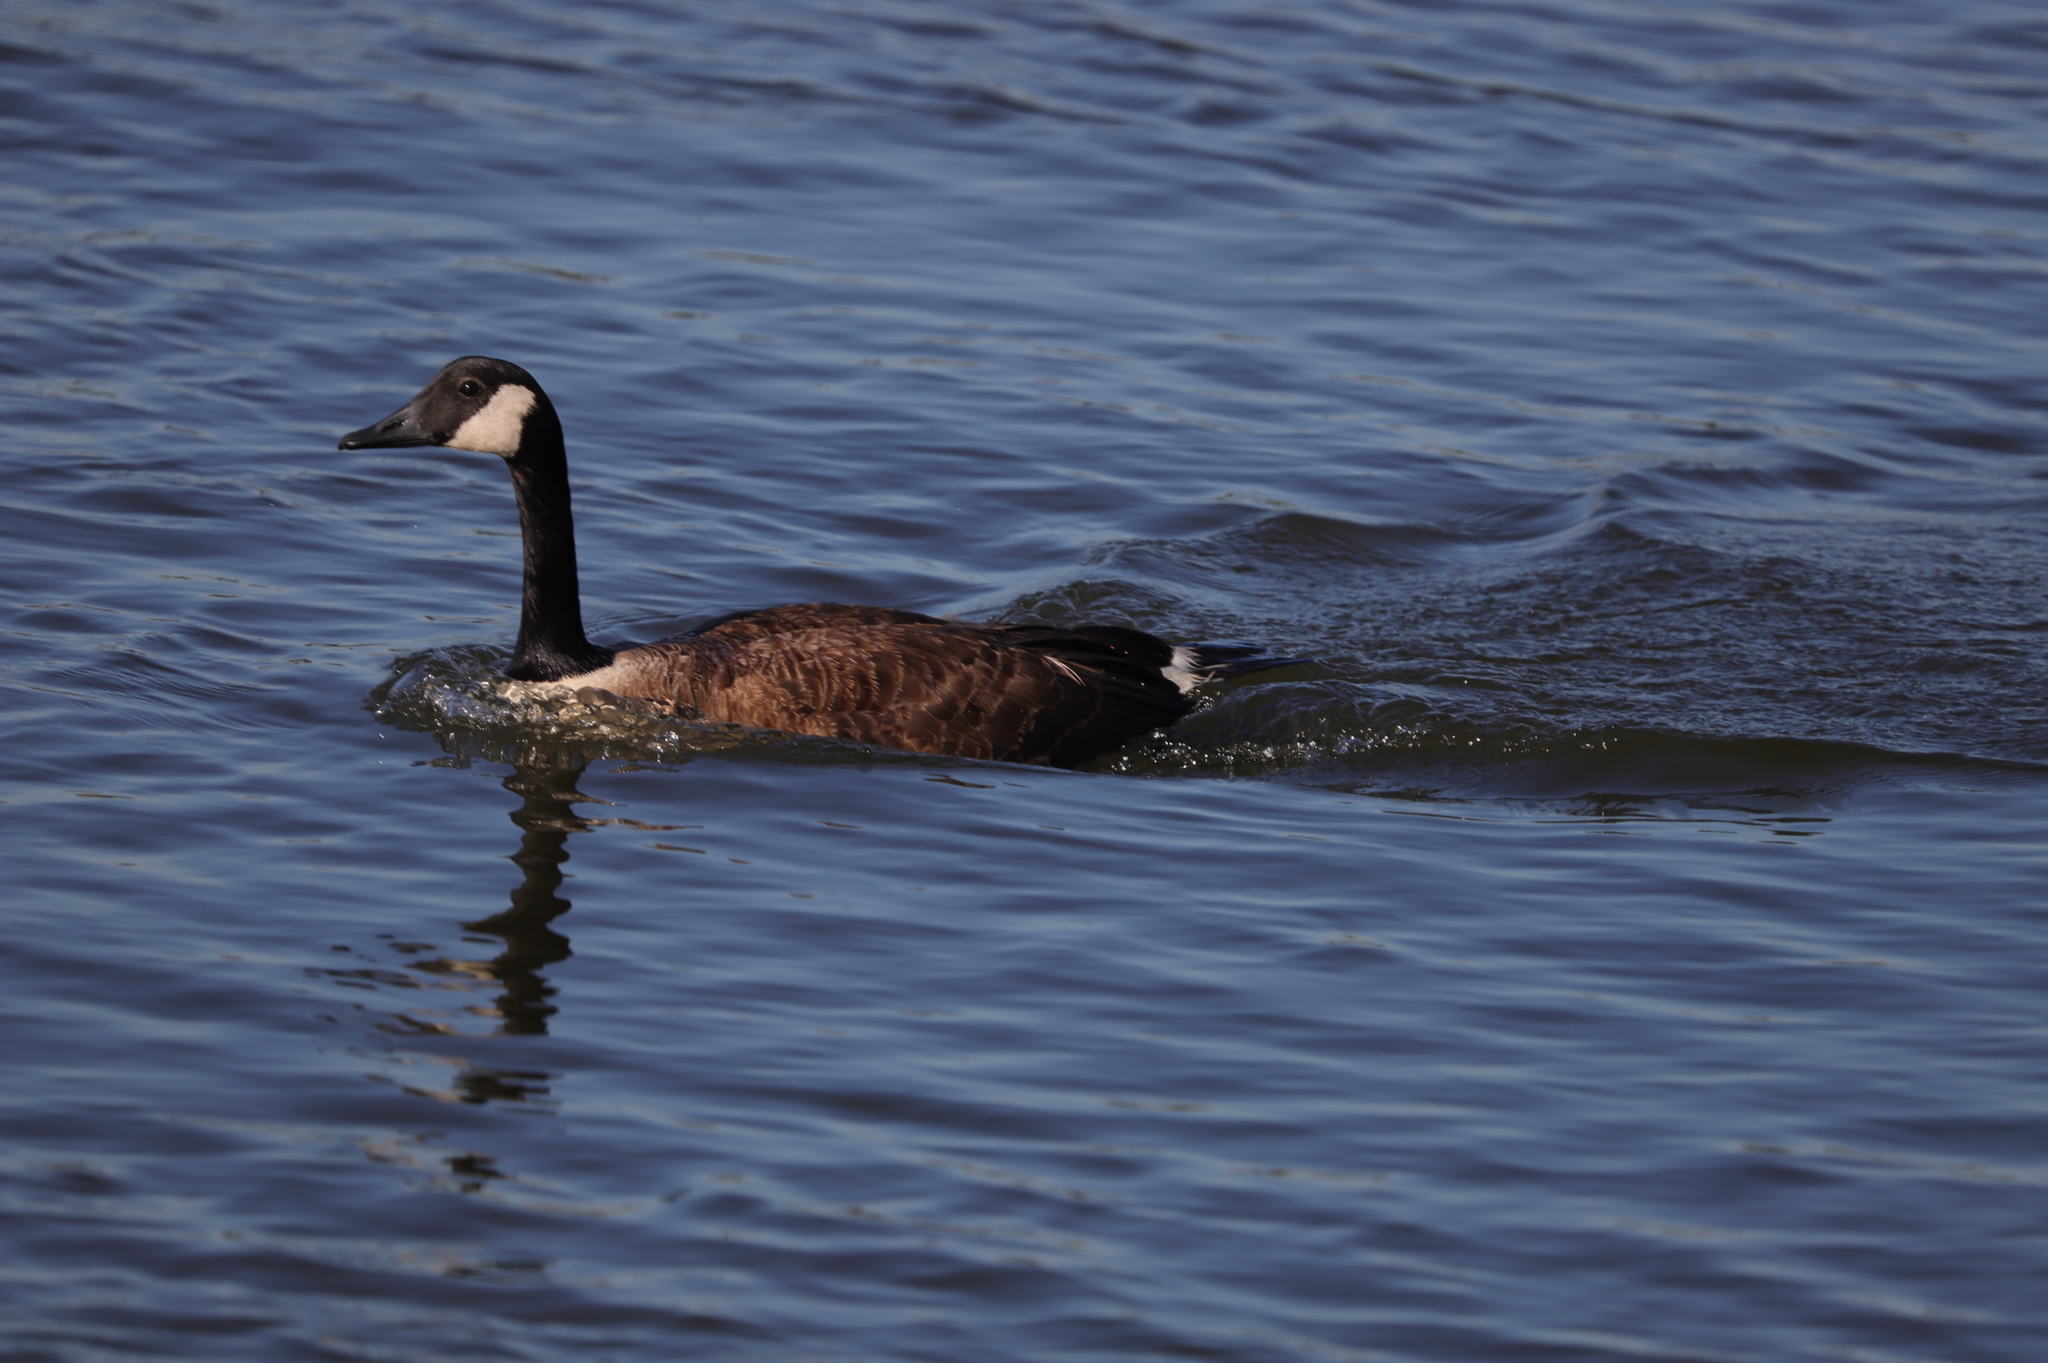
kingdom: Animalia
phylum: Chordata
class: Aves
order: Anseriformes
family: Anatidae
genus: Branta
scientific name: Branta canadensis
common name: Canada goose
